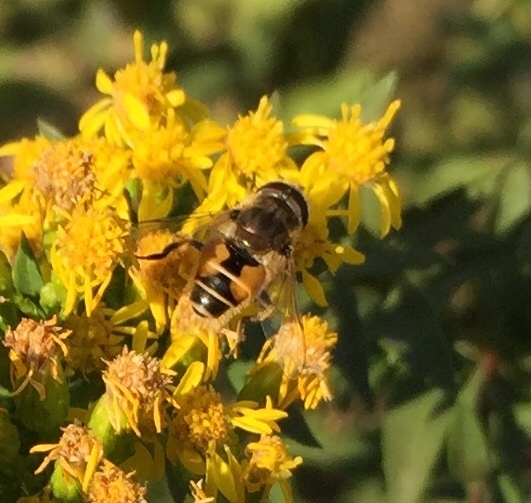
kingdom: Animalia
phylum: Arthropoda
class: Insecta
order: Diptera
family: Syrphidae
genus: Eristalis
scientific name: Eristalis arbustorum
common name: Hover fly
